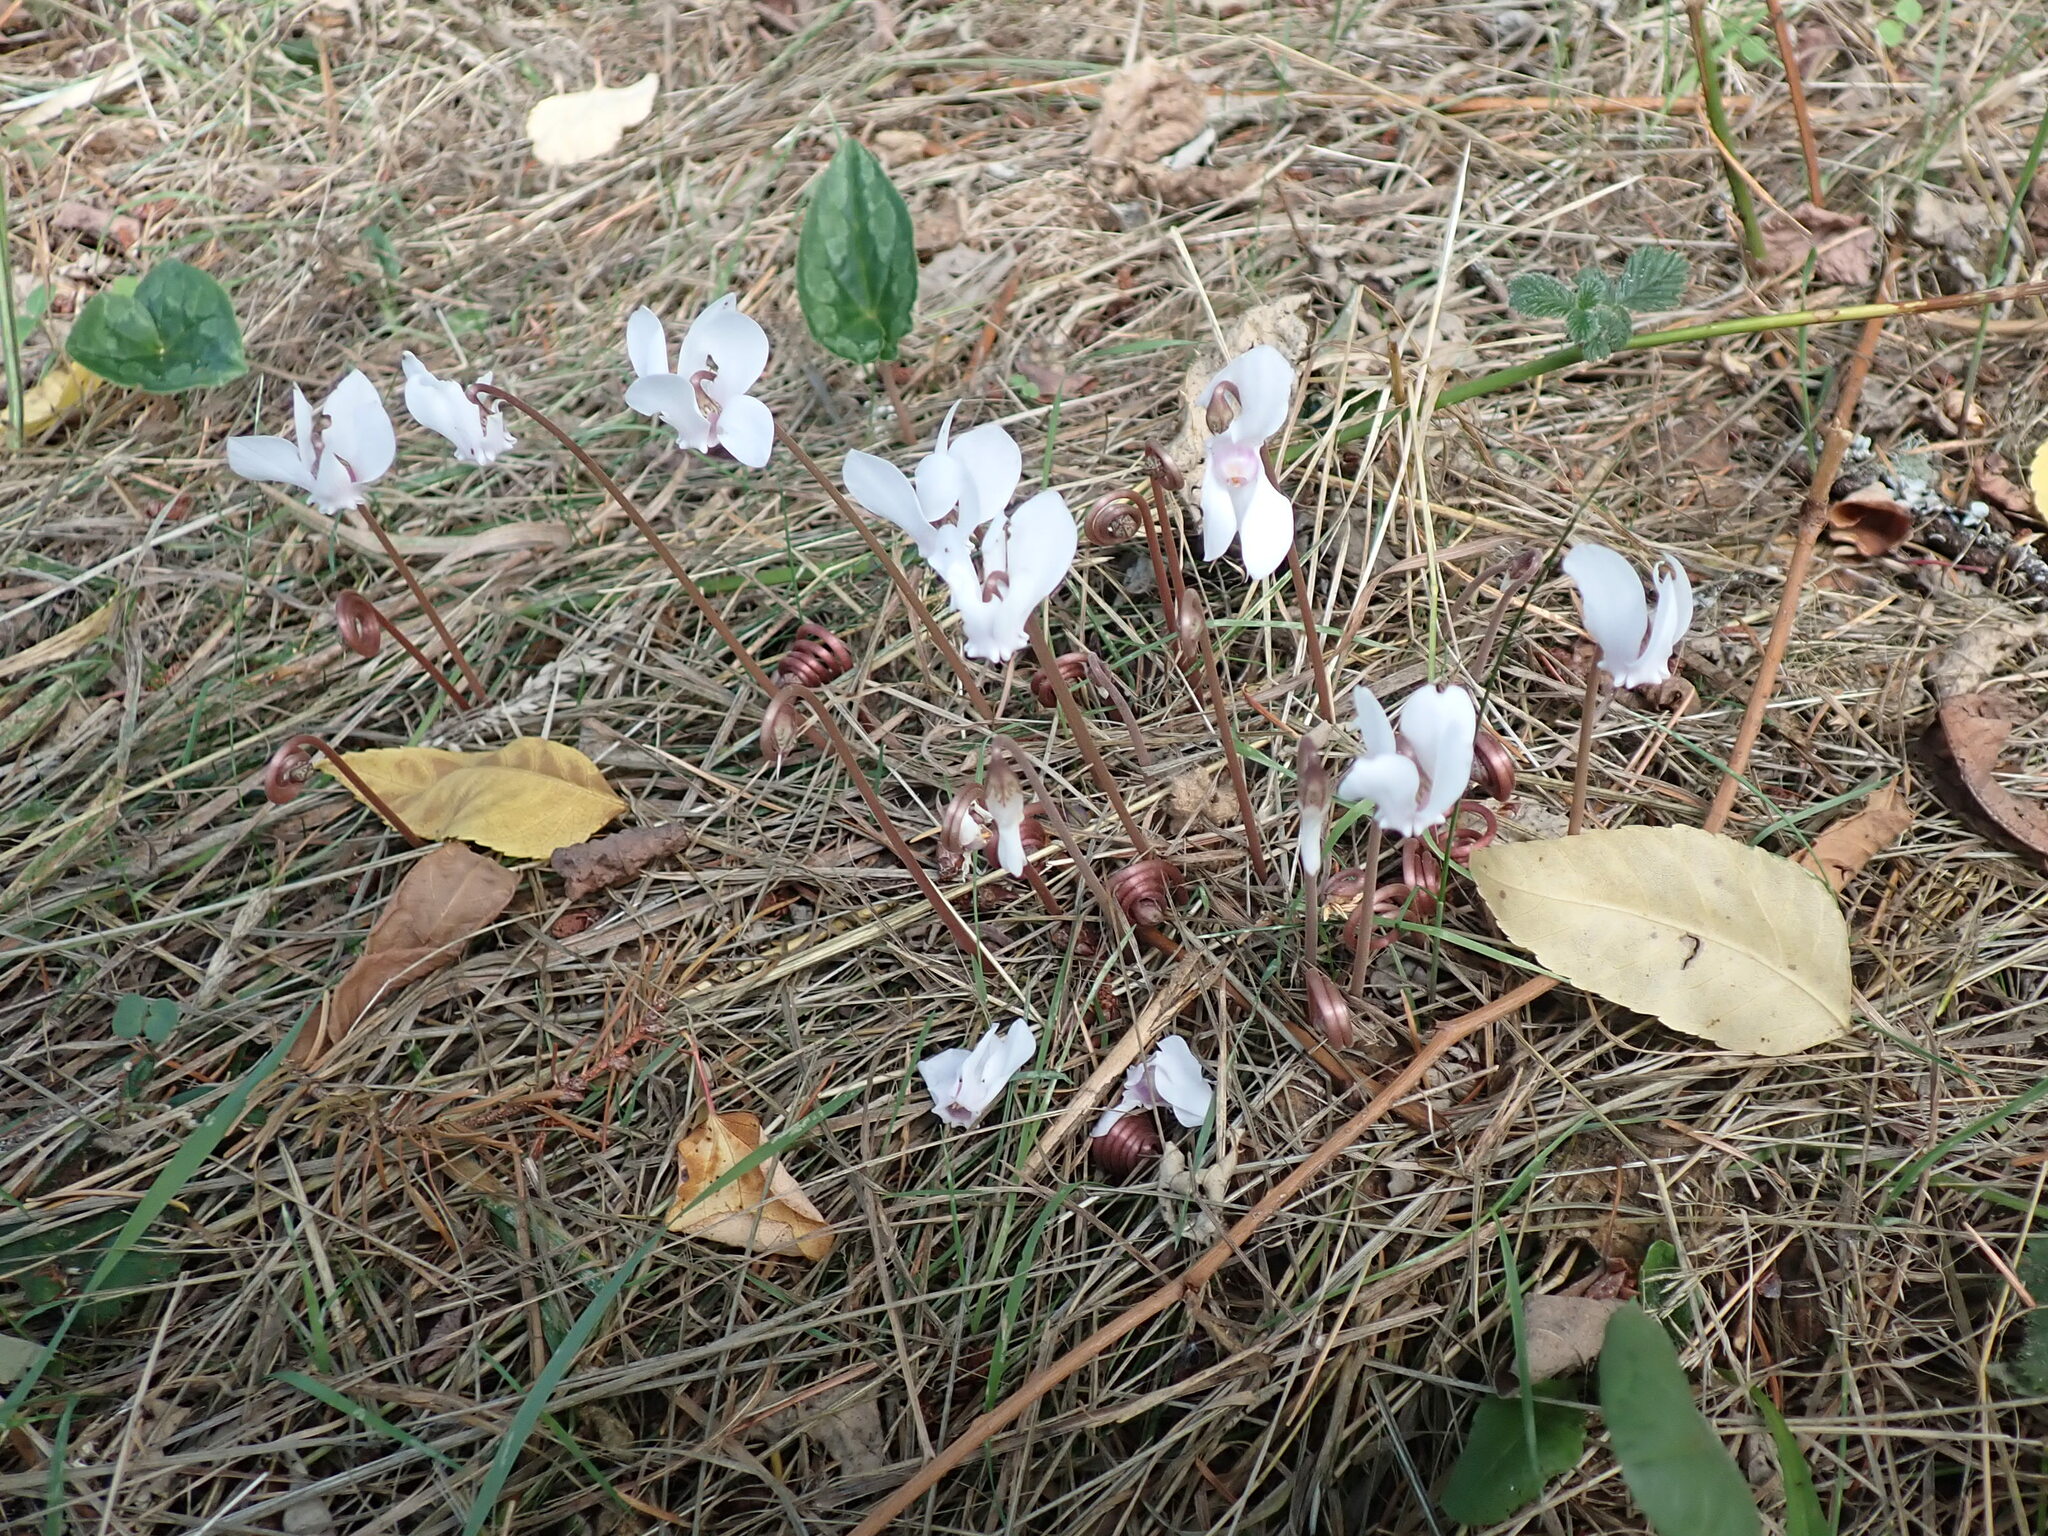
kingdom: Plantae
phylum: Tracheophyta
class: Magnoliopsida
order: Ericales
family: Primulaceae
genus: Cyclamen
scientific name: Cyclamen hederifolium
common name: Sowbread
